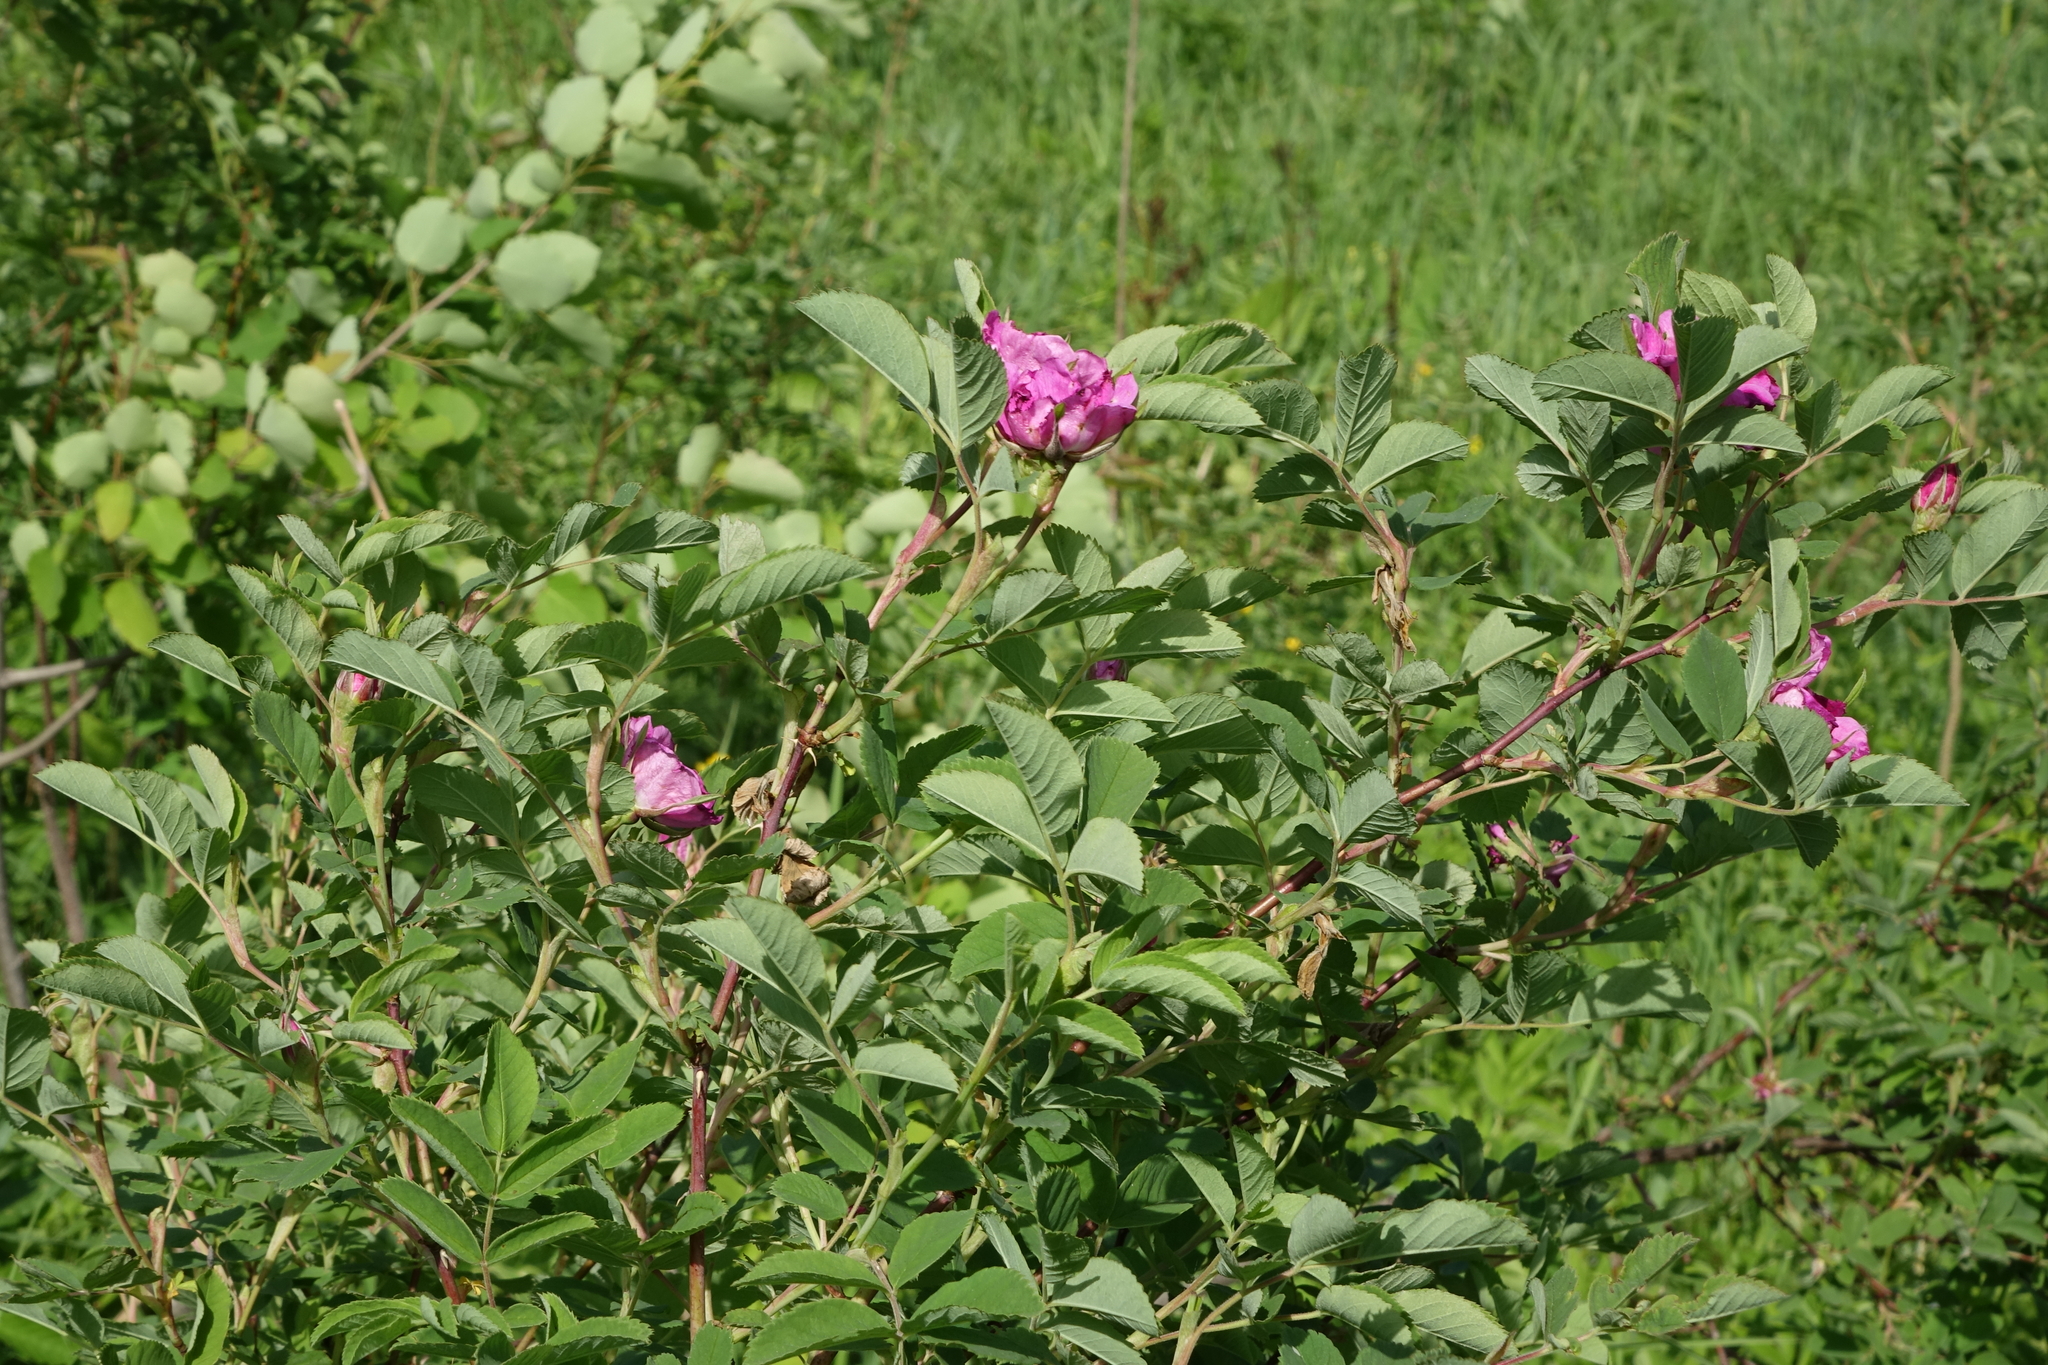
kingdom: Plantae
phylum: Tracheophyta
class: Magnoliopsida
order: Rosales
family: Rosaceae
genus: Rosa
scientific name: Rosa majalis
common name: Cinnamon rose
